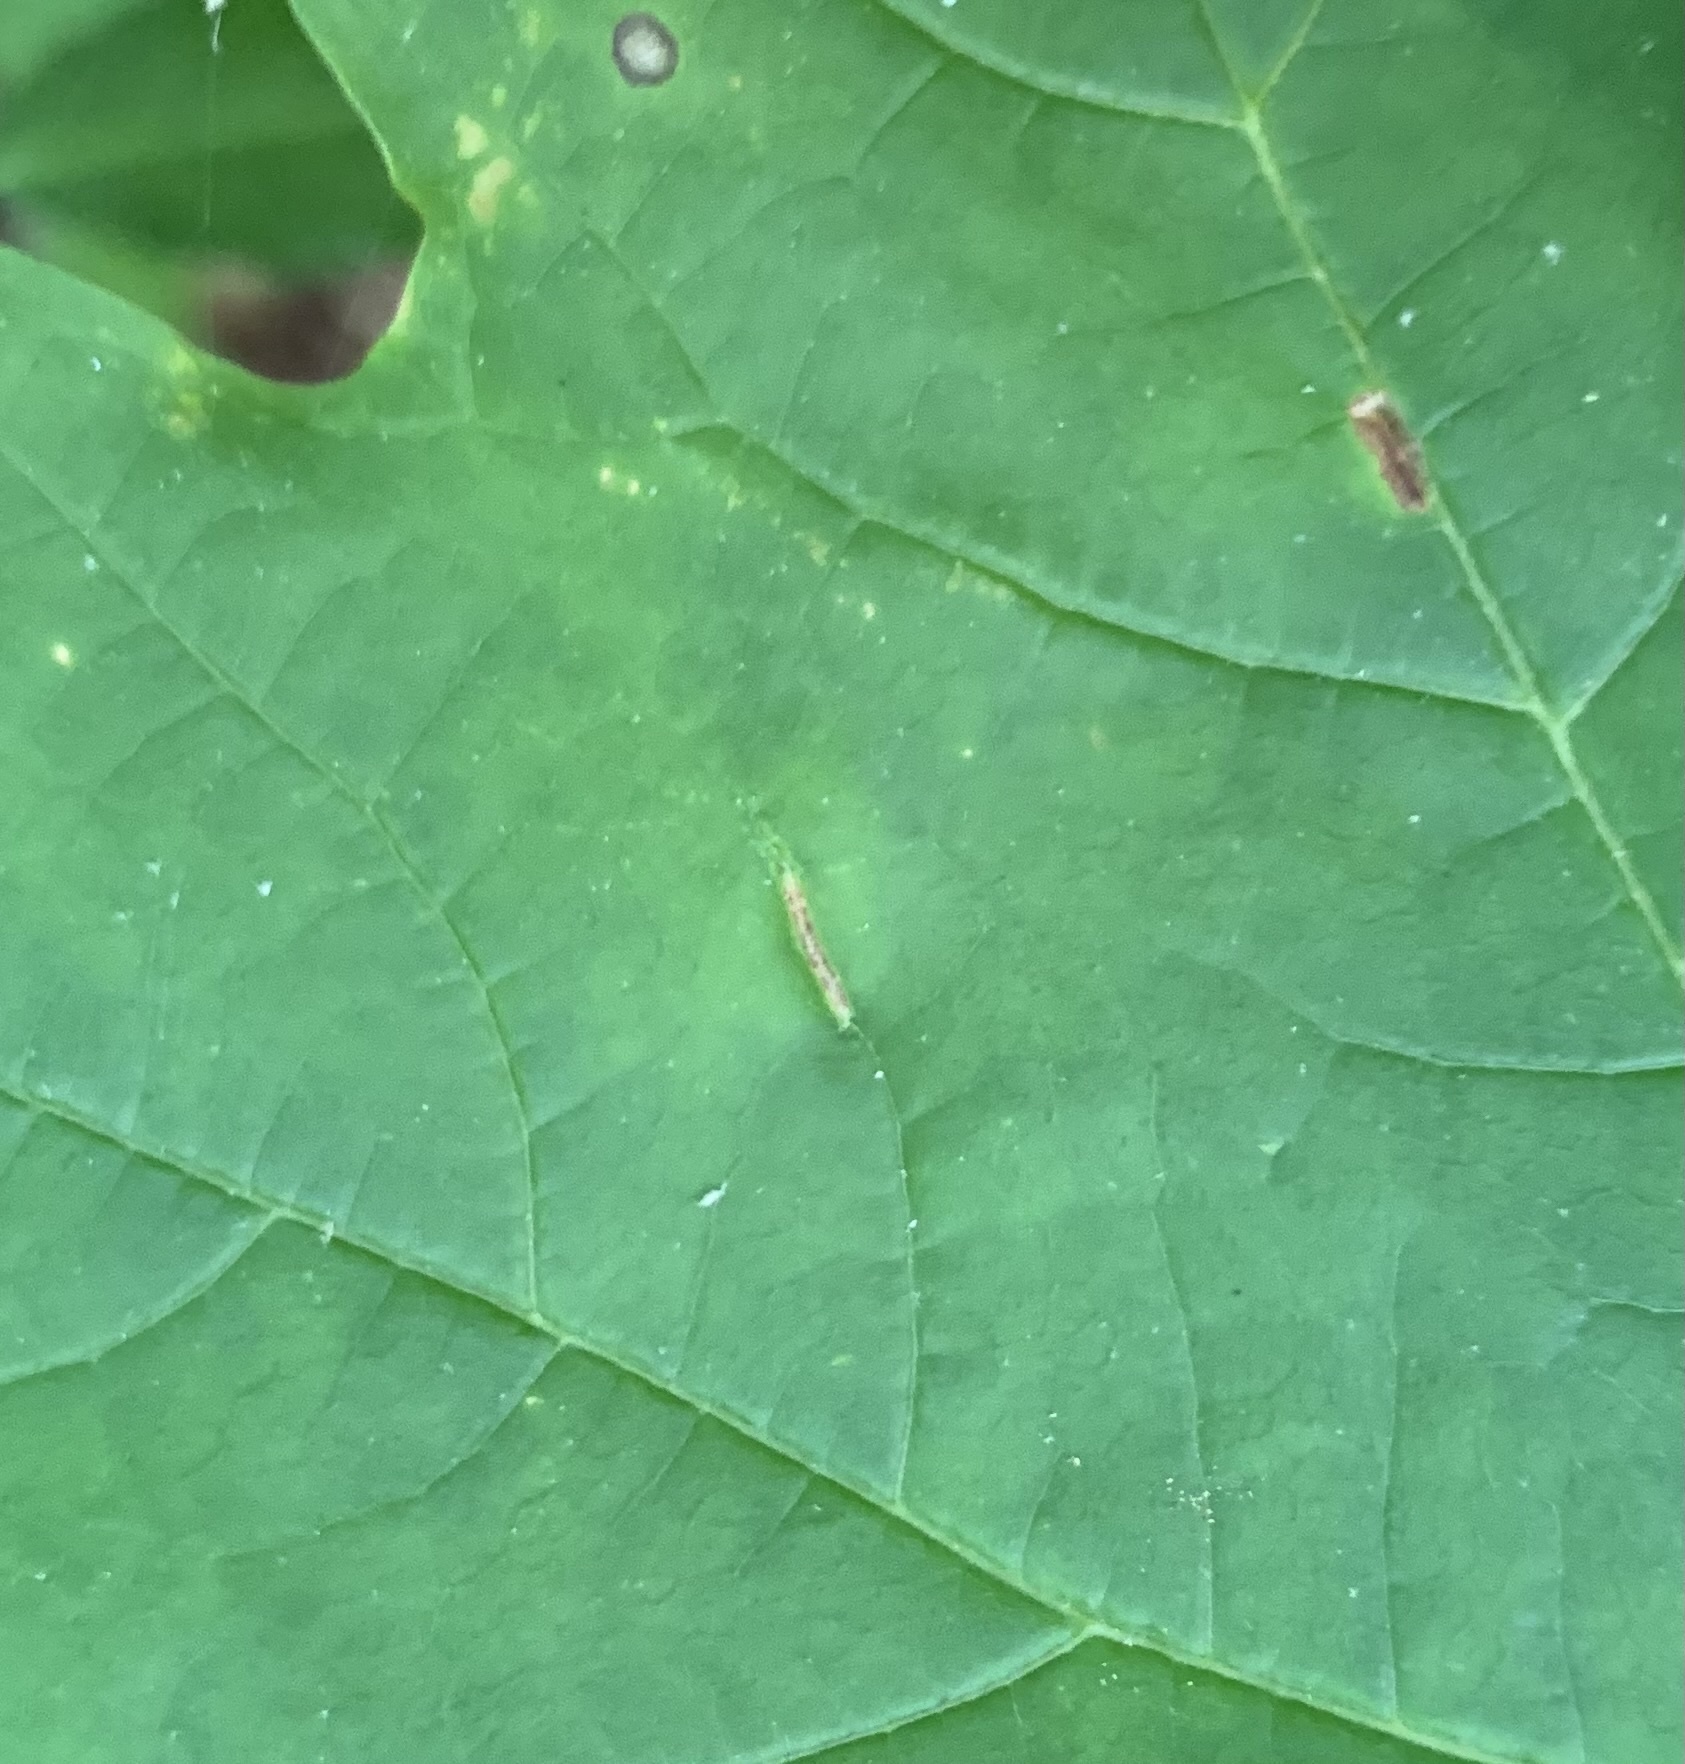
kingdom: Animalia
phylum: Arthropoda
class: Insecta
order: Diptera
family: Cecidomyiidae
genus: Dasineura
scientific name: Dasineura communis
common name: Gouty vein midge
